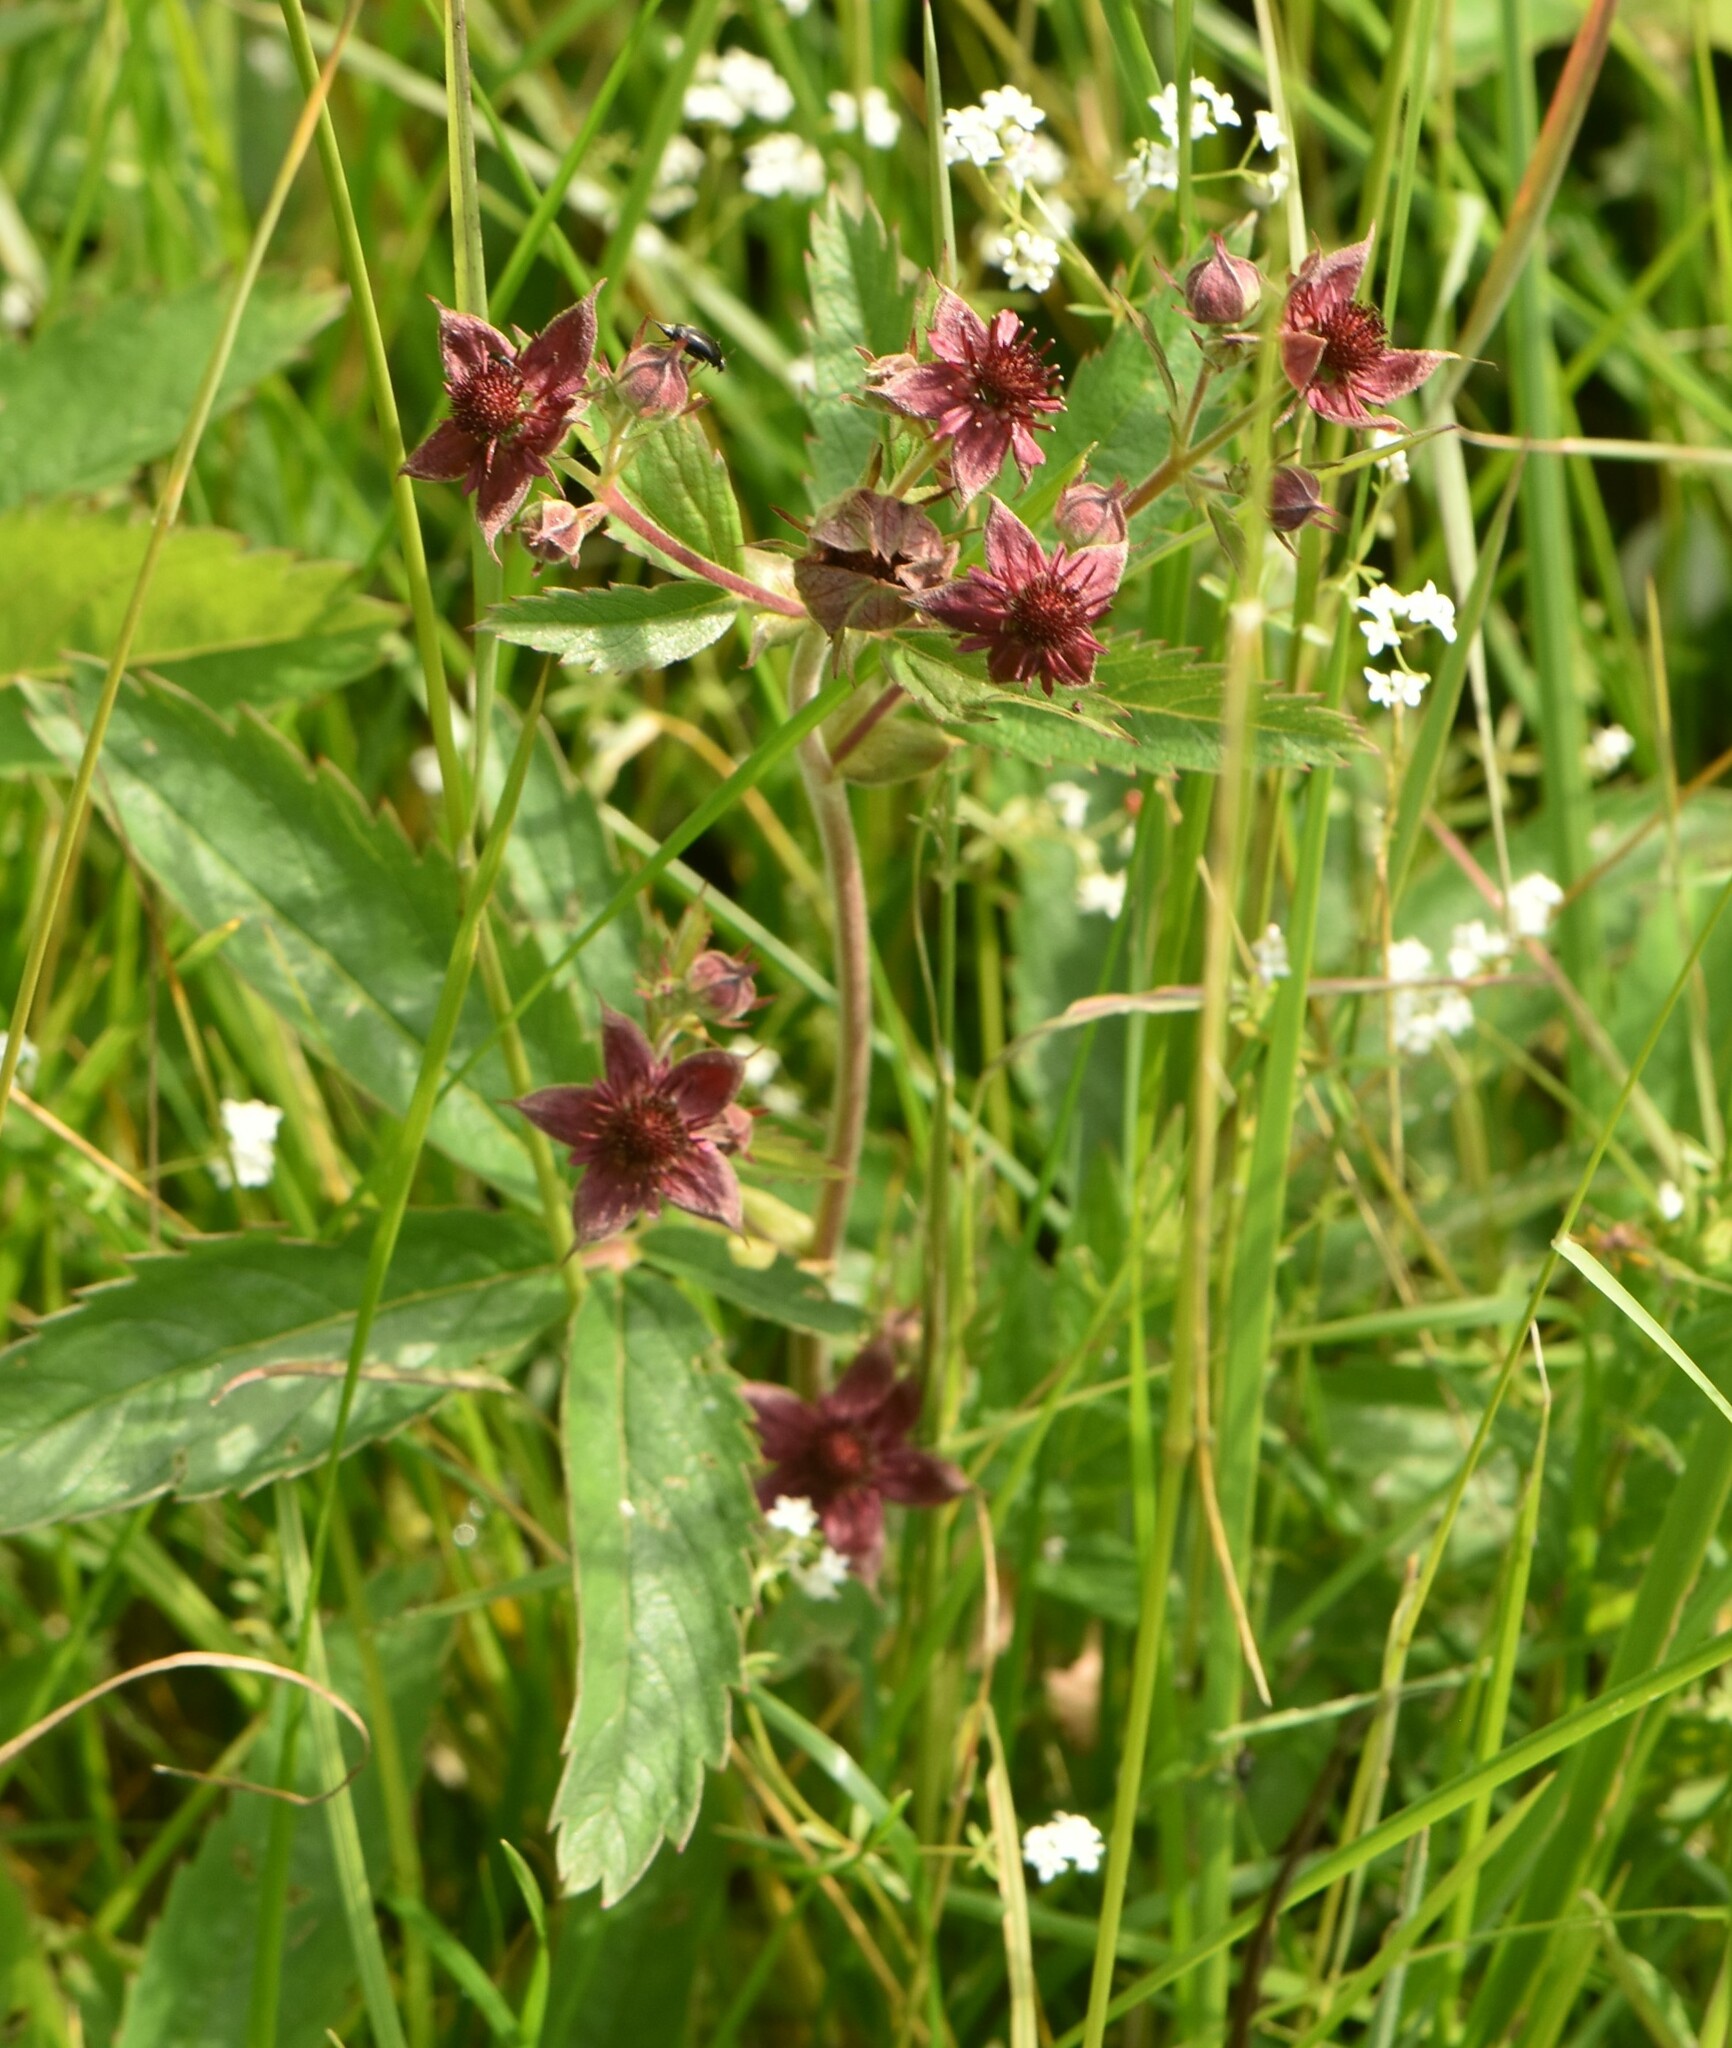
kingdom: Plantae
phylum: Tracheophyta
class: Magnoliopsida
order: Rosales
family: Rosaceae
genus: Comarum
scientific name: Comarum palustre
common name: Marsh cinquefoil
